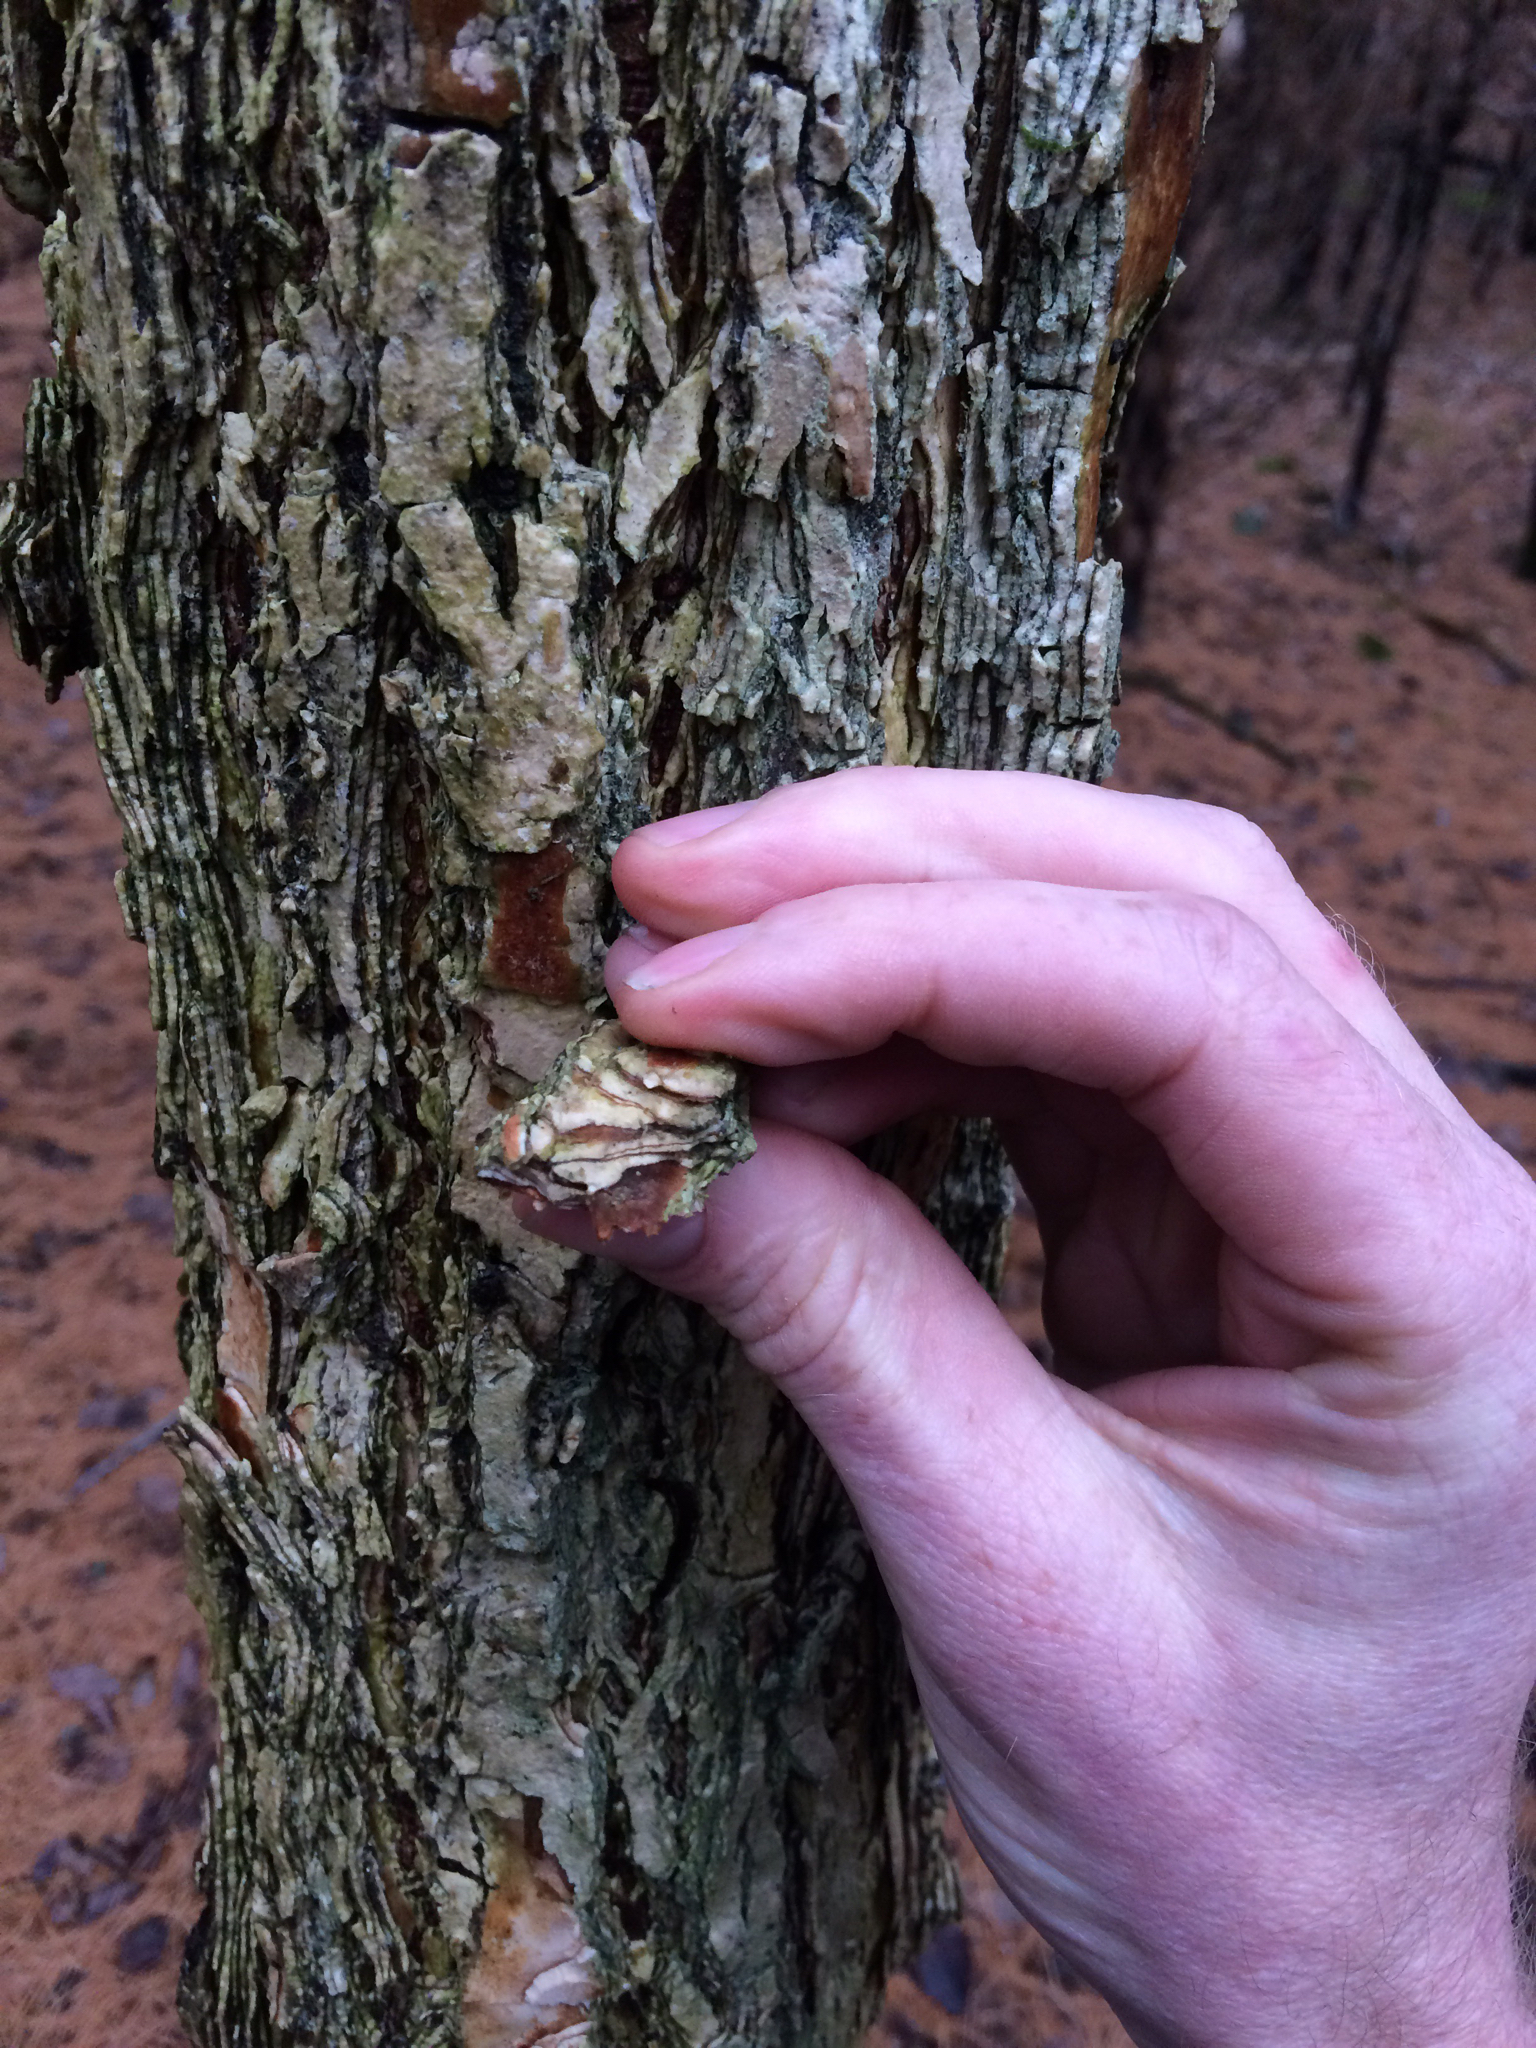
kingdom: Plantae
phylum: Tracheophyta
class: Magnoliopsida
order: Rosales
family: Ulmaceae
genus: Ulmus
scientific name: Ulmus americana
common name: American elm
